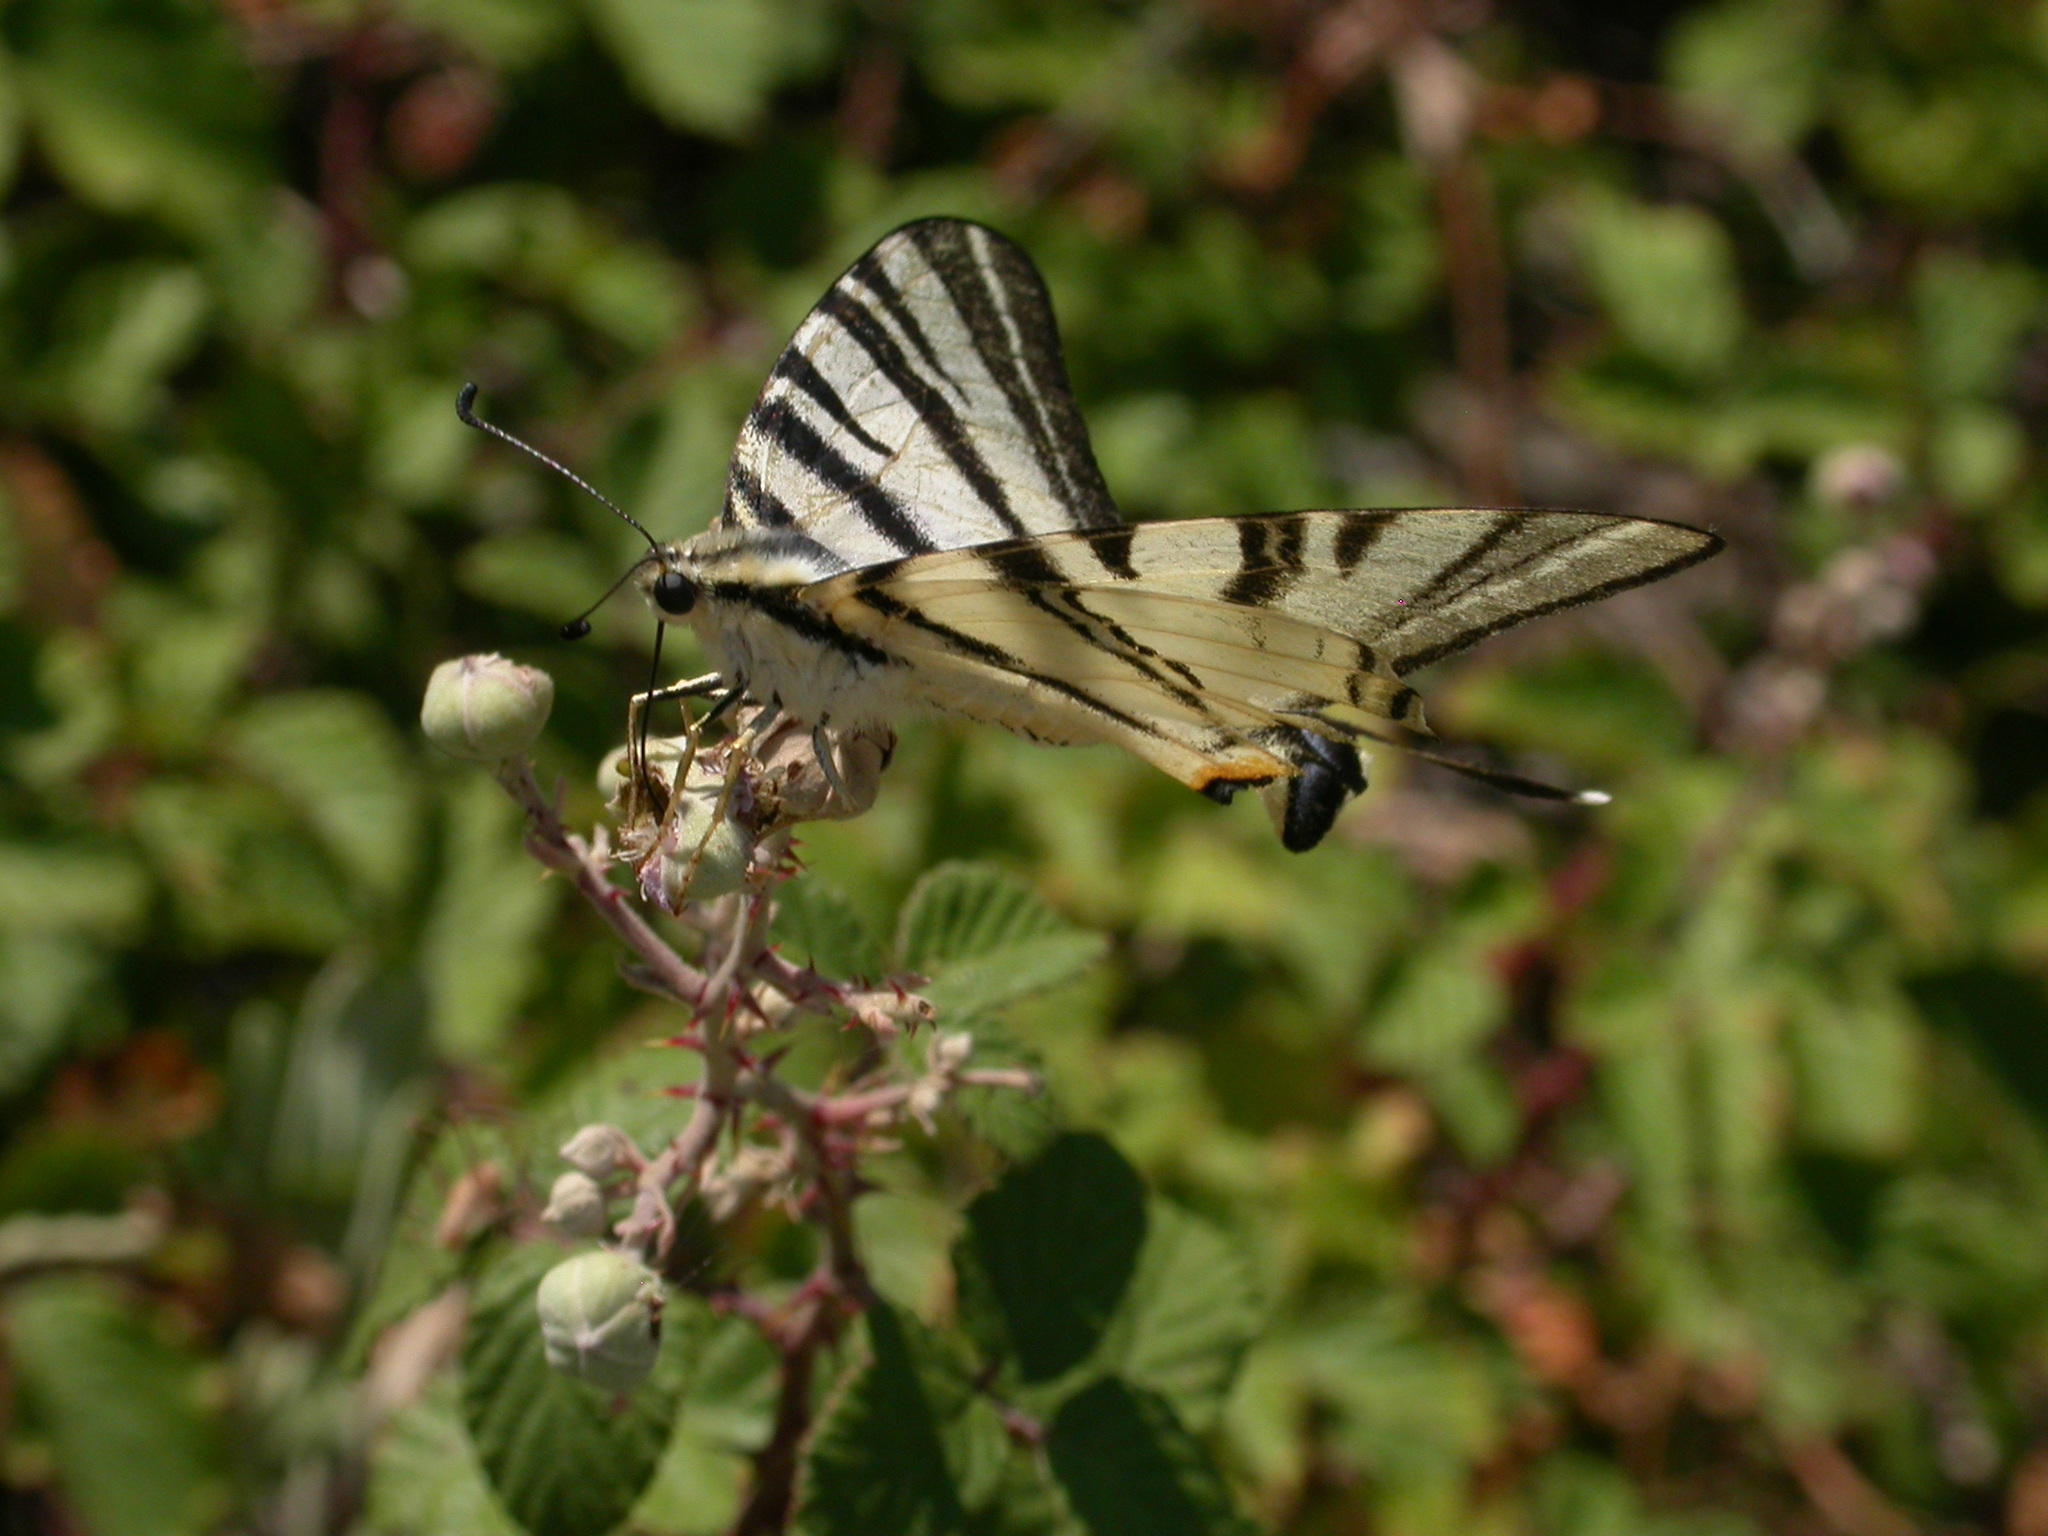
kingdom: Animalia
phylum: Arthropoda
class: Insecta
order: Lepidoptera
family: Papilionidae
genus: Iphiclides
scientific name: Iphiclides podalirius
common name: Scarce swallowtail
